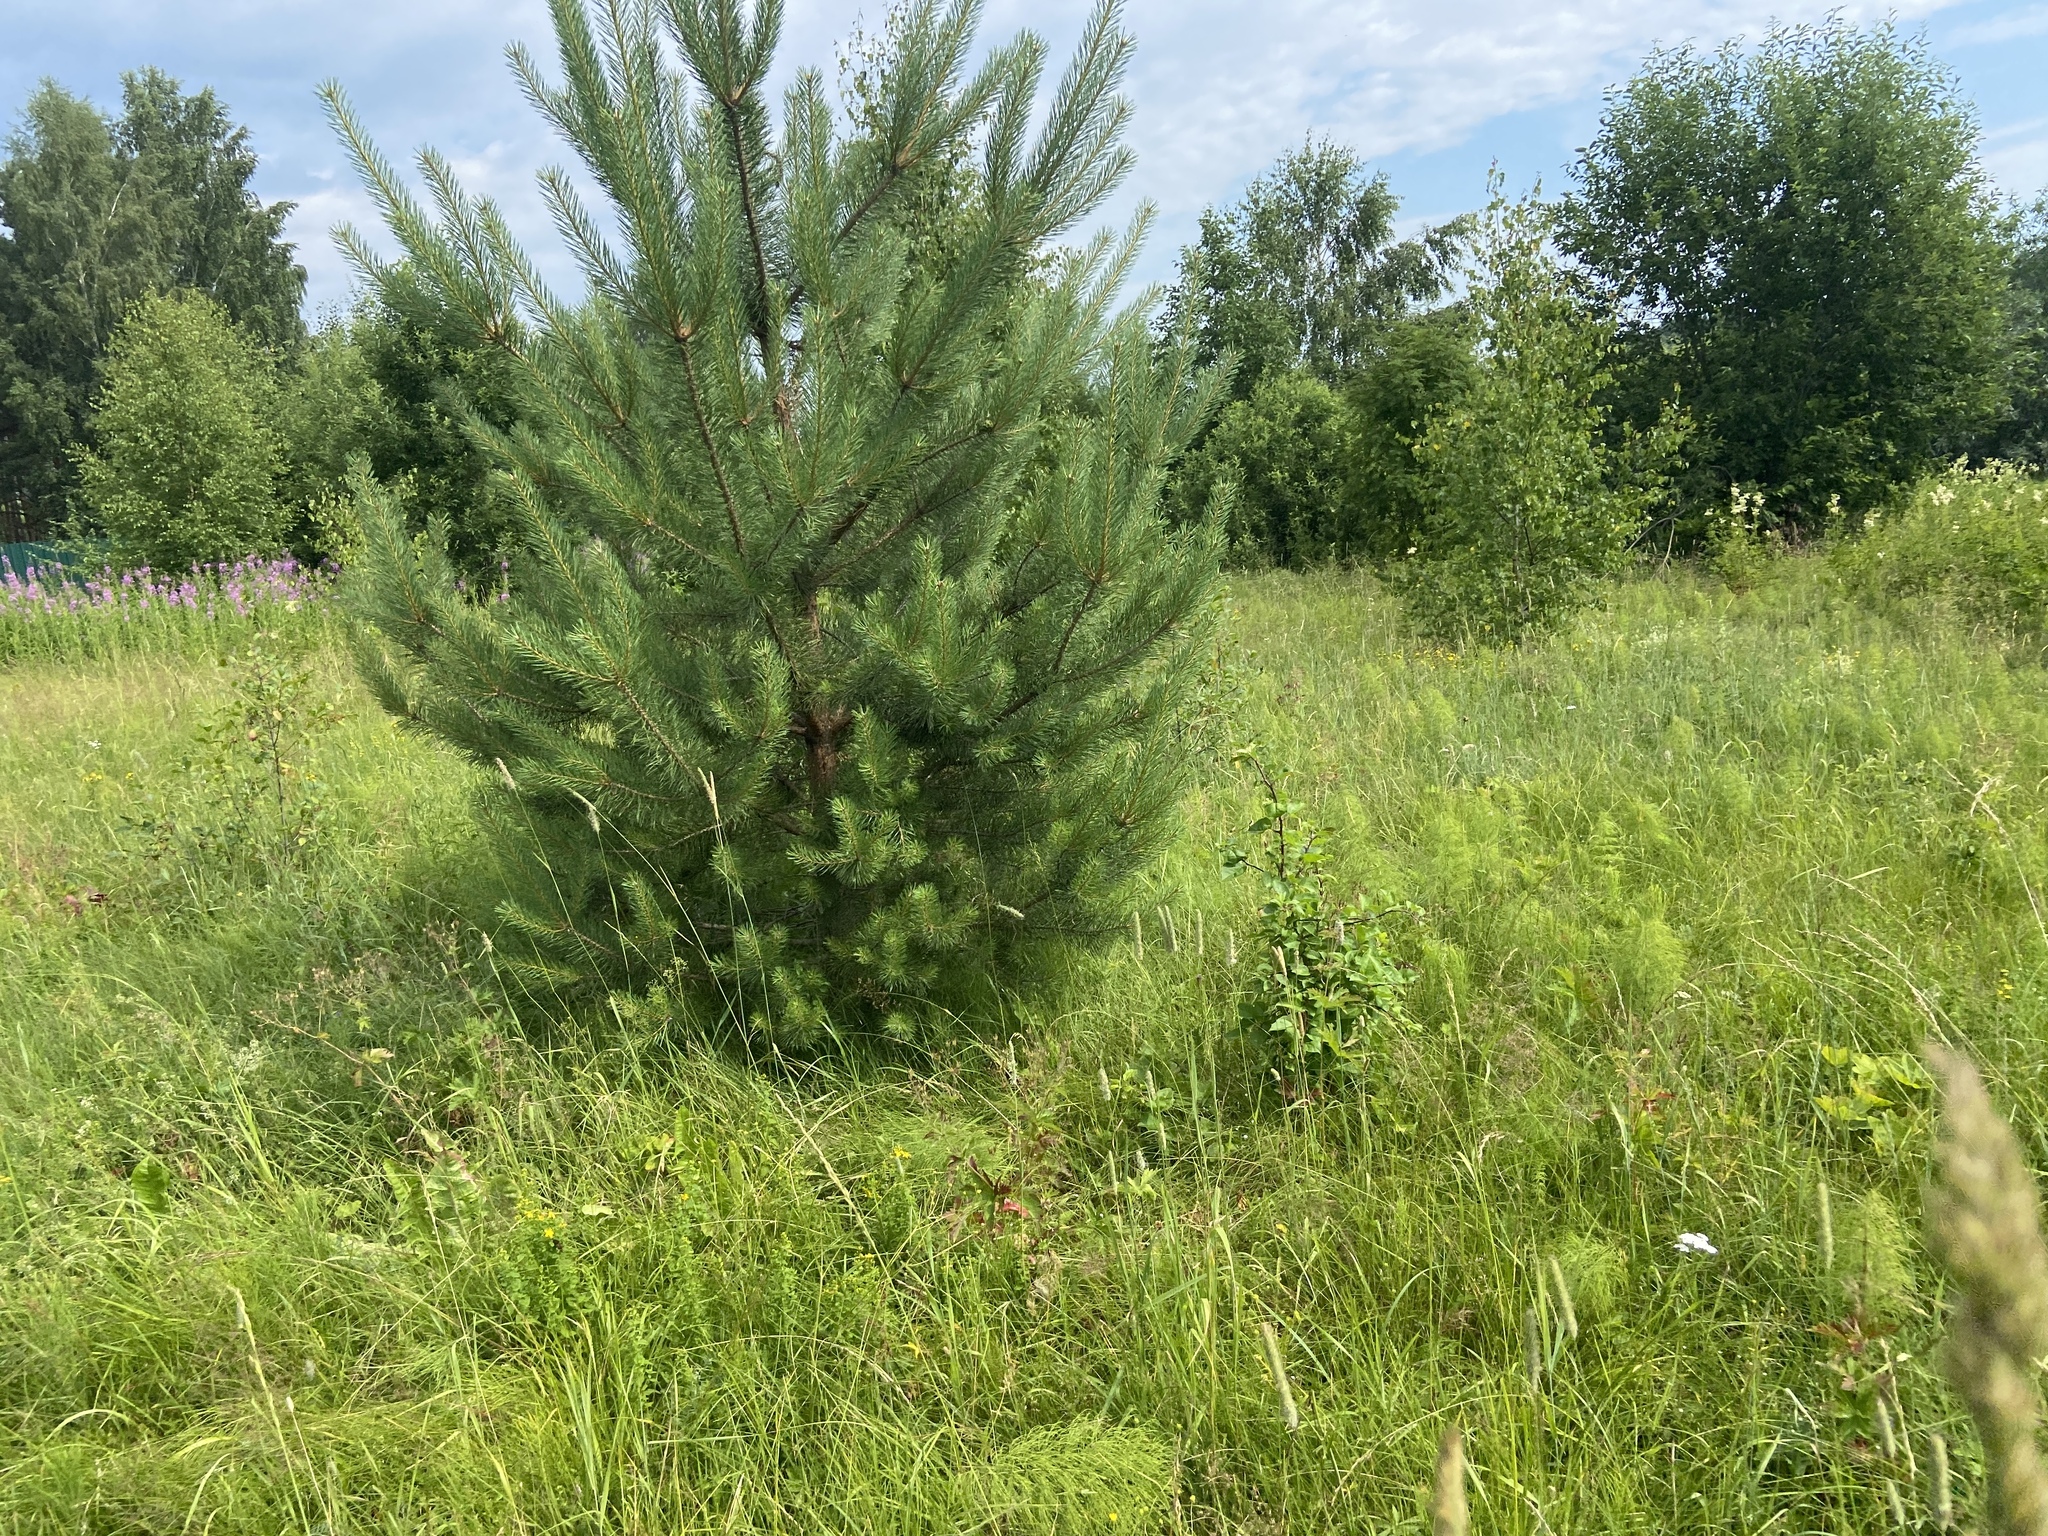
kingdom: Plantae
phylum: Tracheophyta
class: Pinopsida
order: Pinales
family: Pinaceae
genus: Pinus
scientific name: Pinus sylvestris
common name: Scots pine
